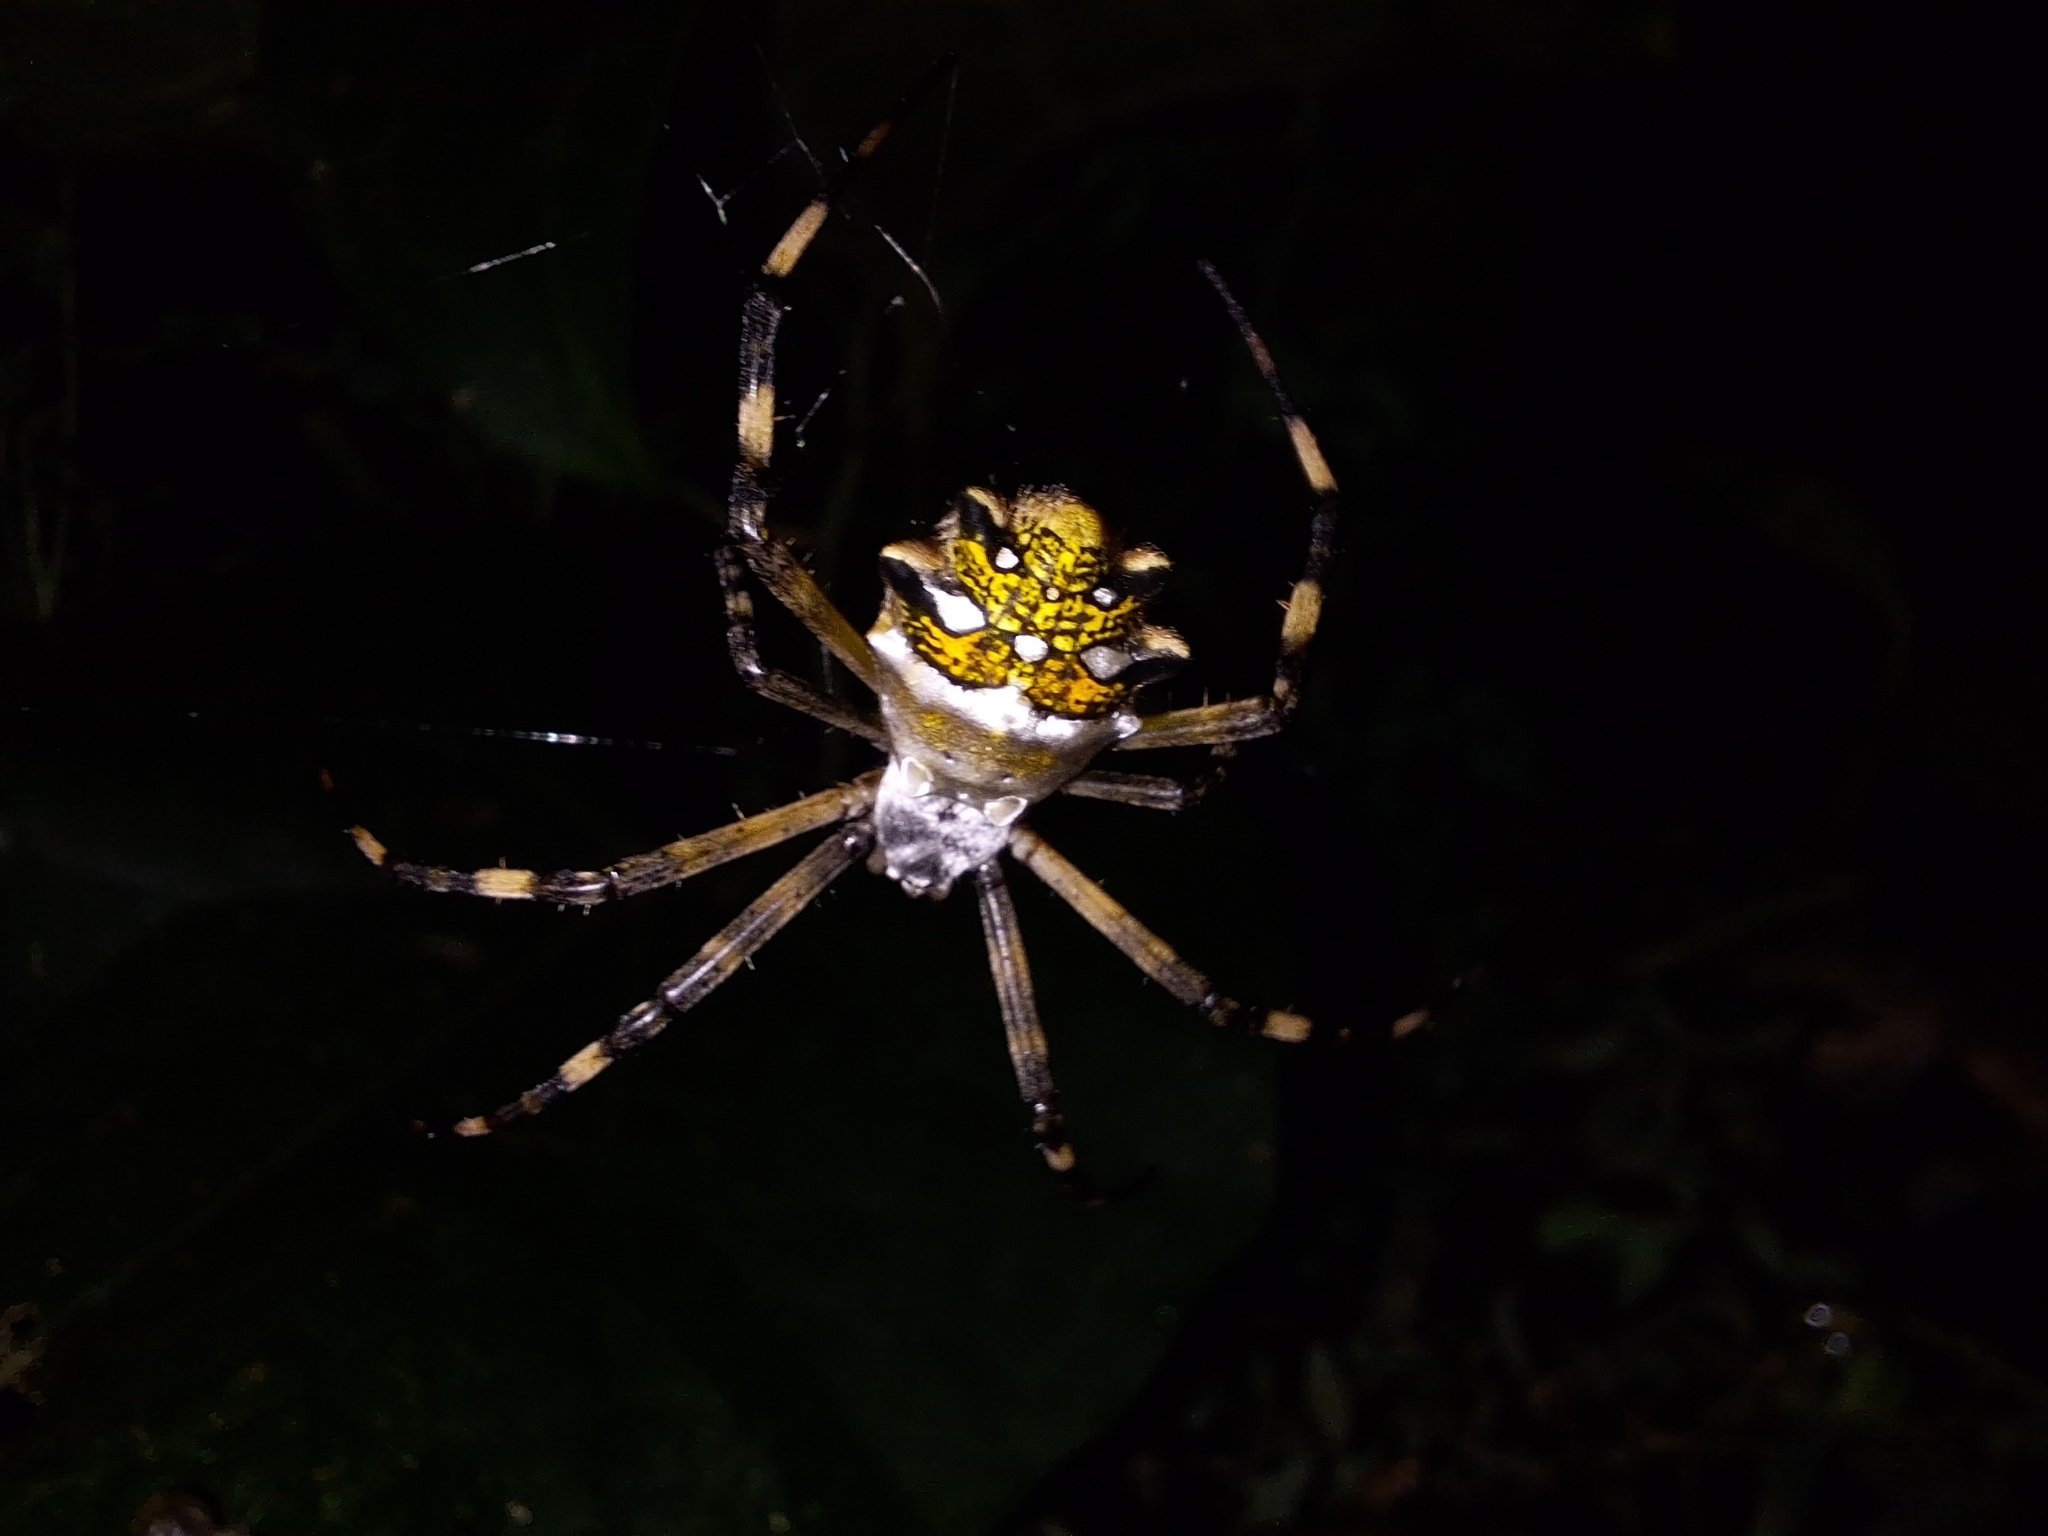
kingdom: Animalia
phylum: Arthropoda
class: Arachnida
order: Araneae
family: Araneidae
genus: Argiope
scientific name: Argiope argentata
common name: Orb weavers
